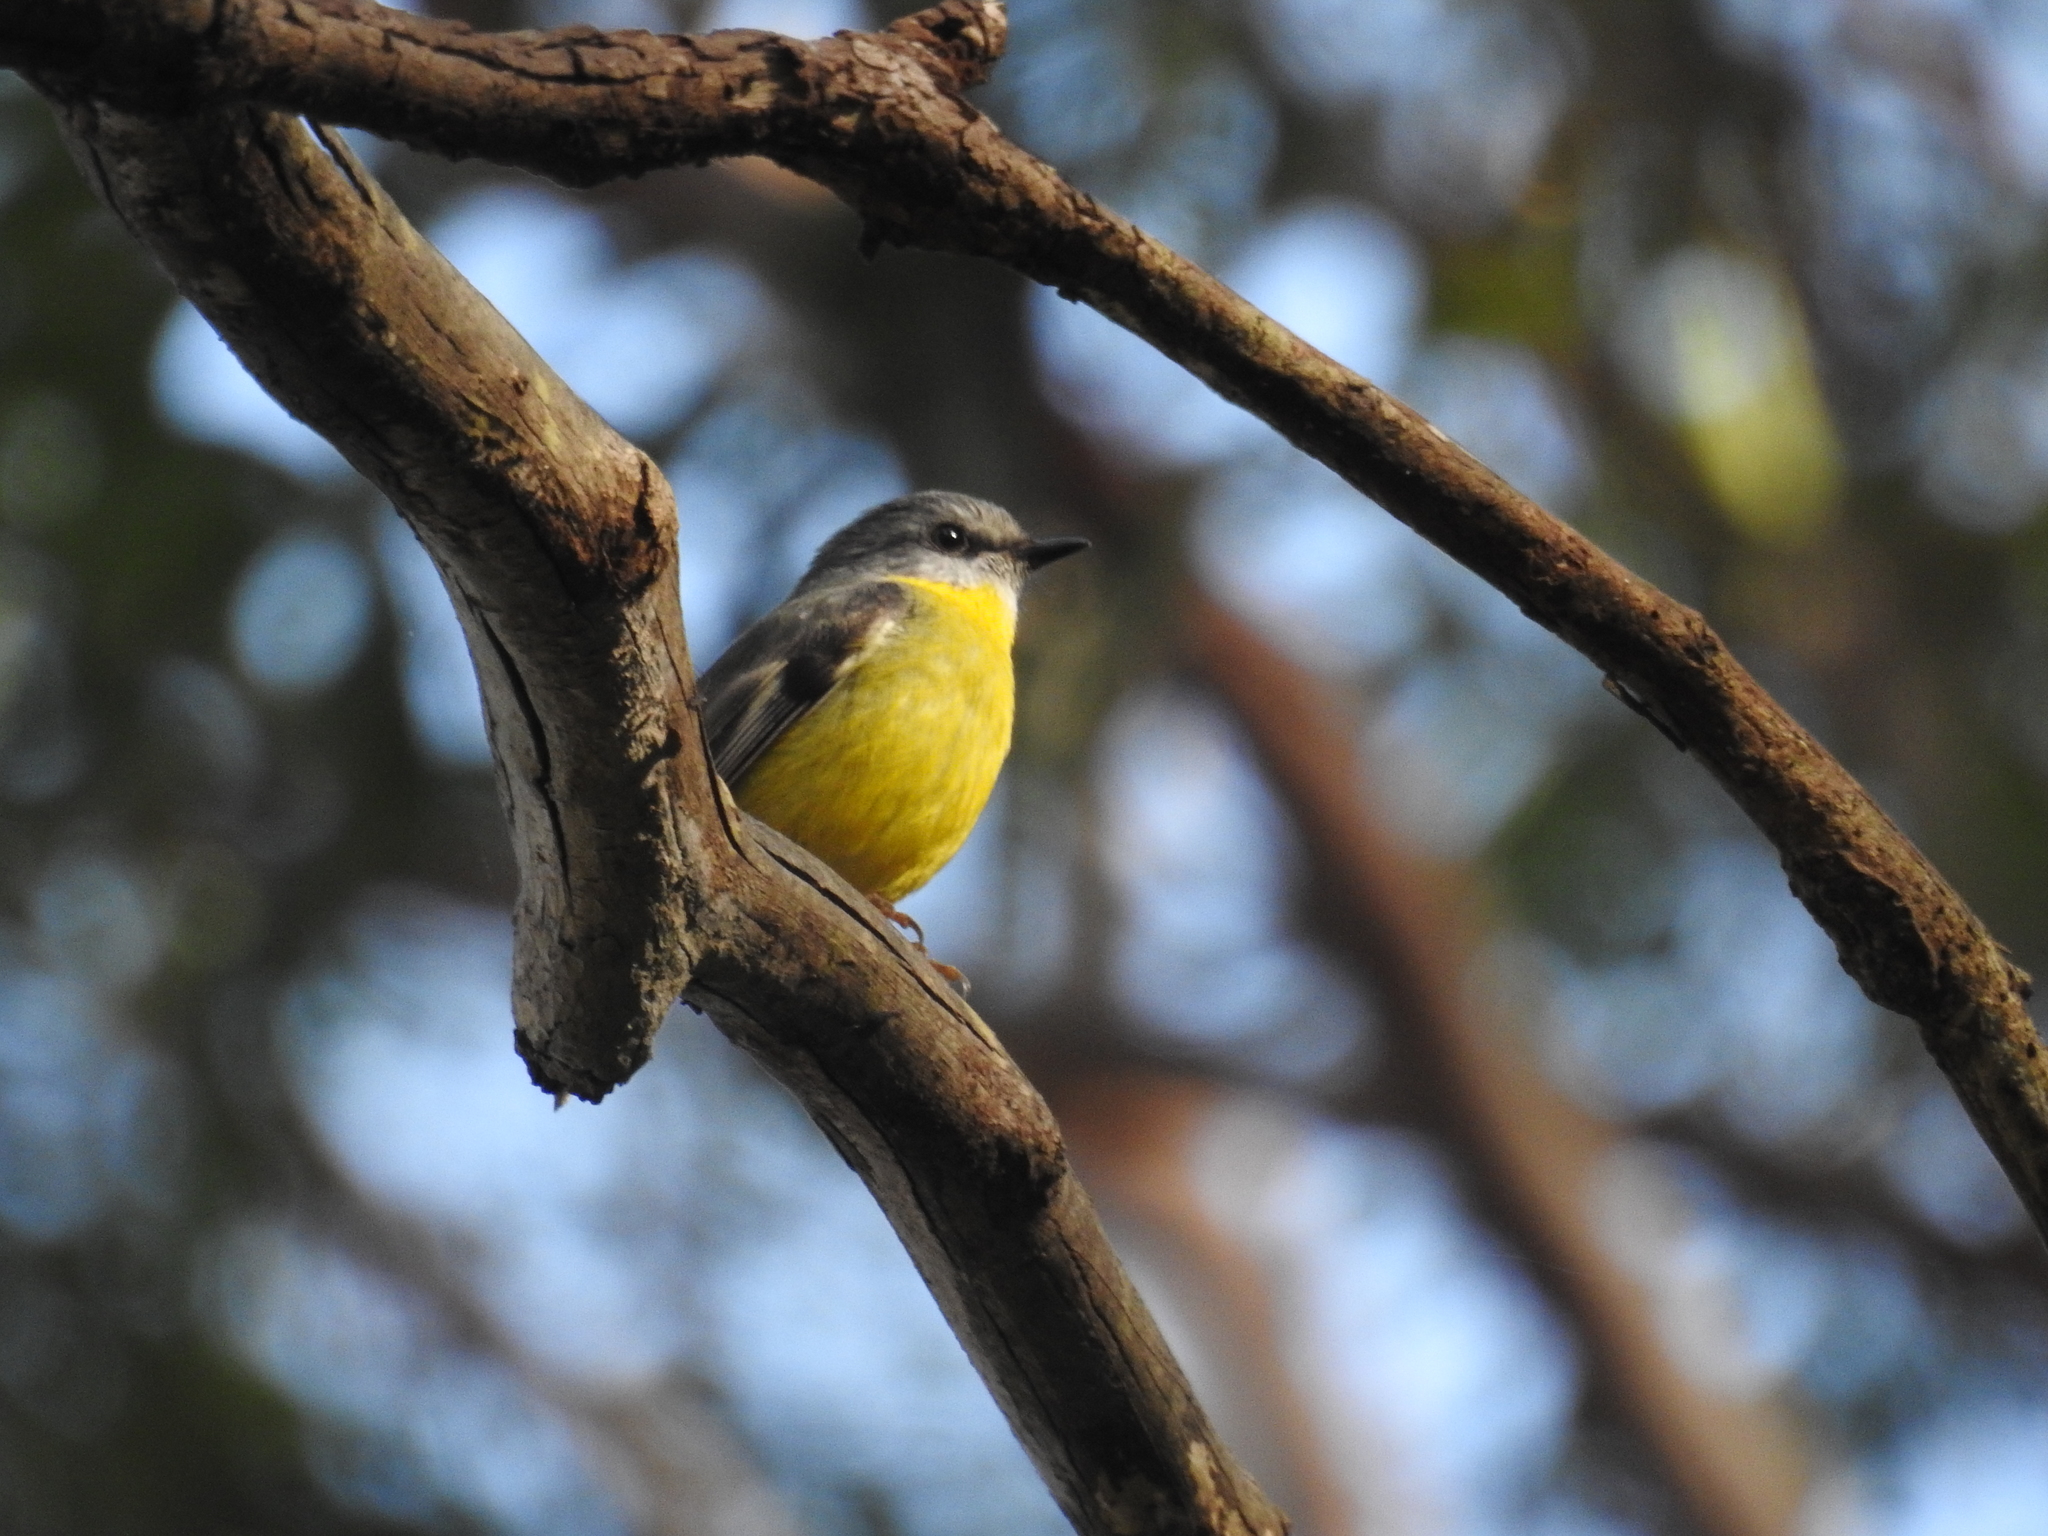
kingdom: Animalia
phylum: Chordata
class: Aves
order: Passeriformes
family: Petroicidae
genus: Eopsaltria
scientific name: Eopsaltria australis
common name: Eastern yellow robin
